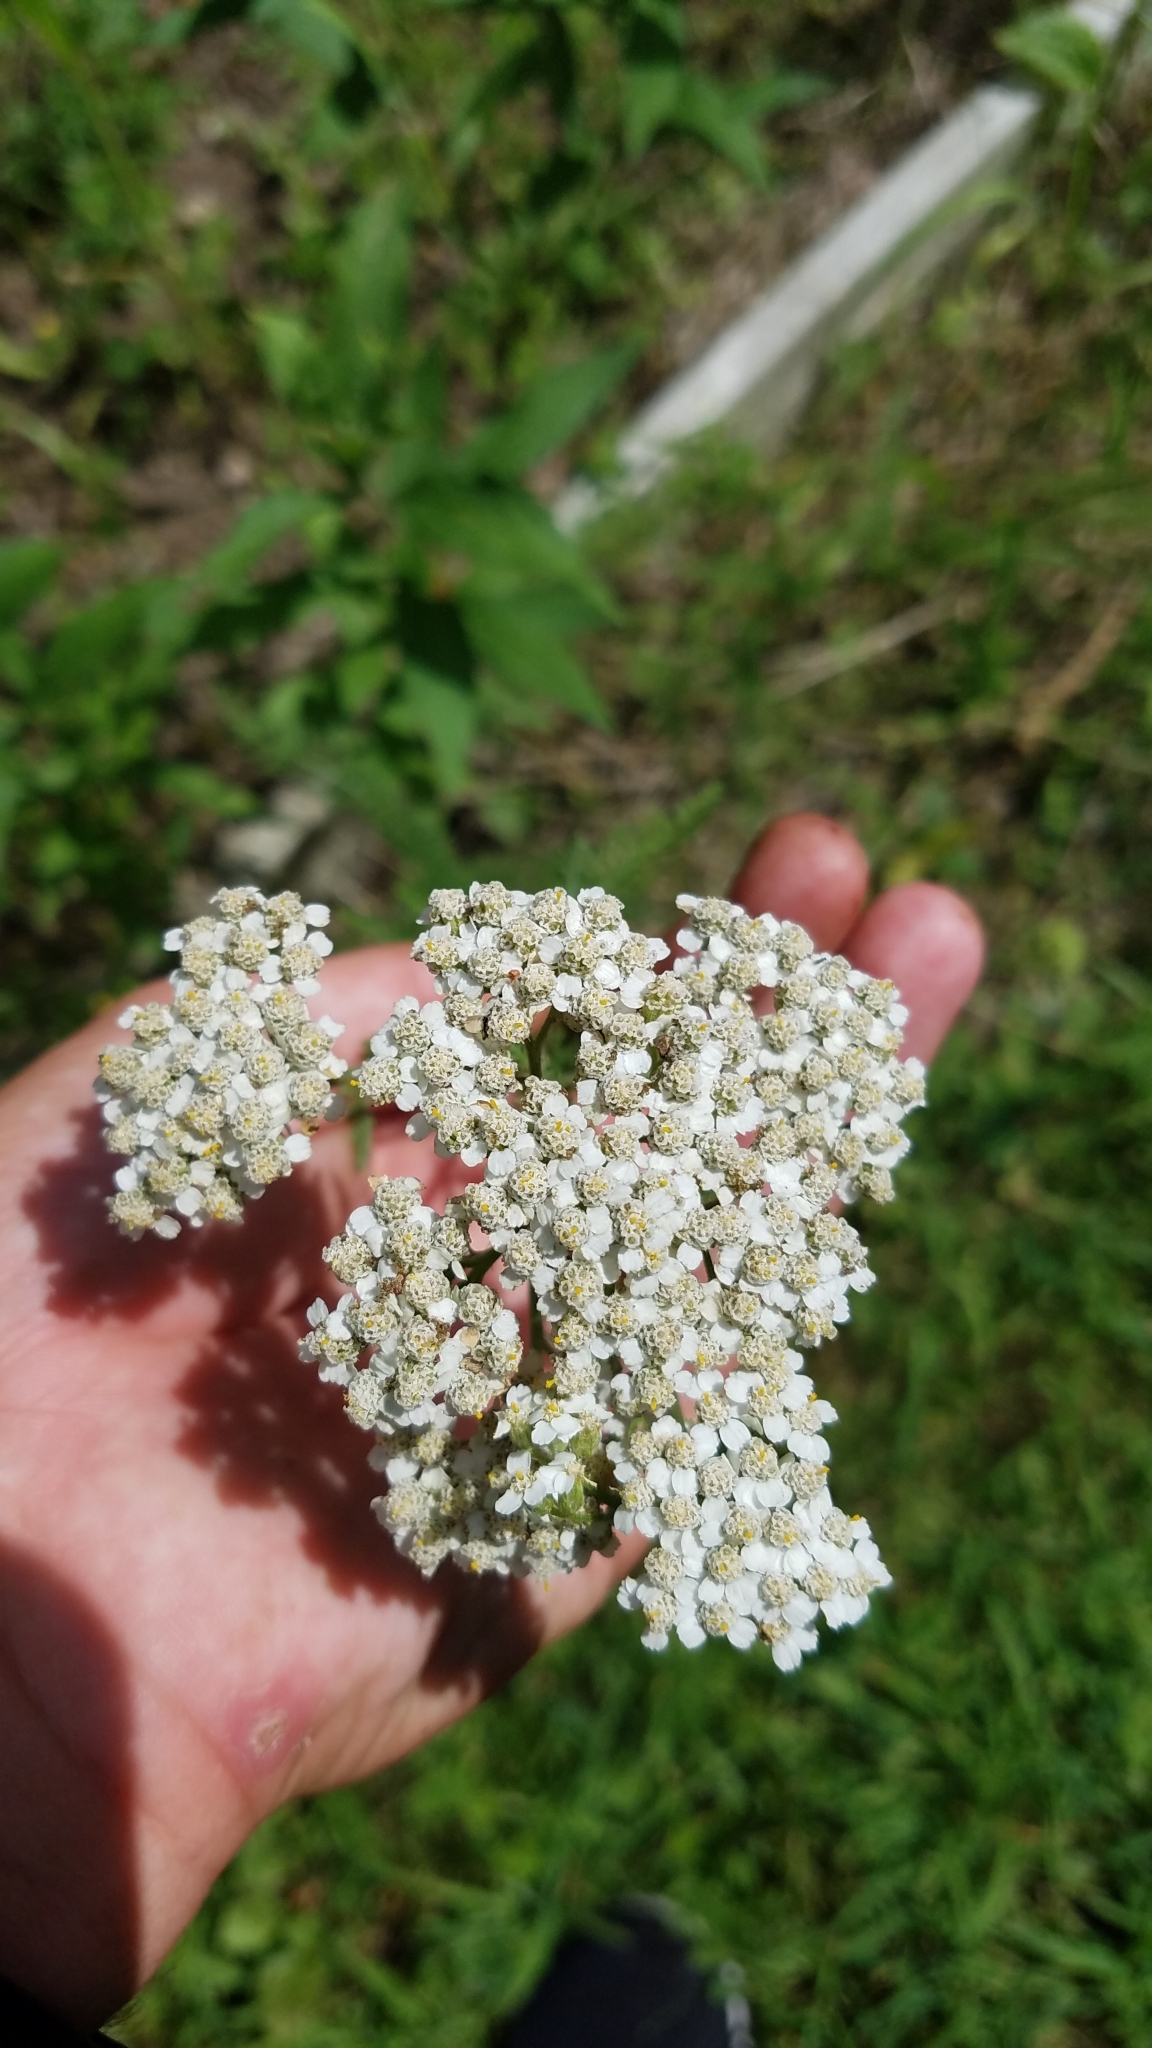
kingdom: Plantae
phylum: Tracheophyta
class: Magnoliopsida
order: Asterales
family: Asteraceae
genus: Achillea
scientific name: Achillea millefolium
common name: Yarrow
